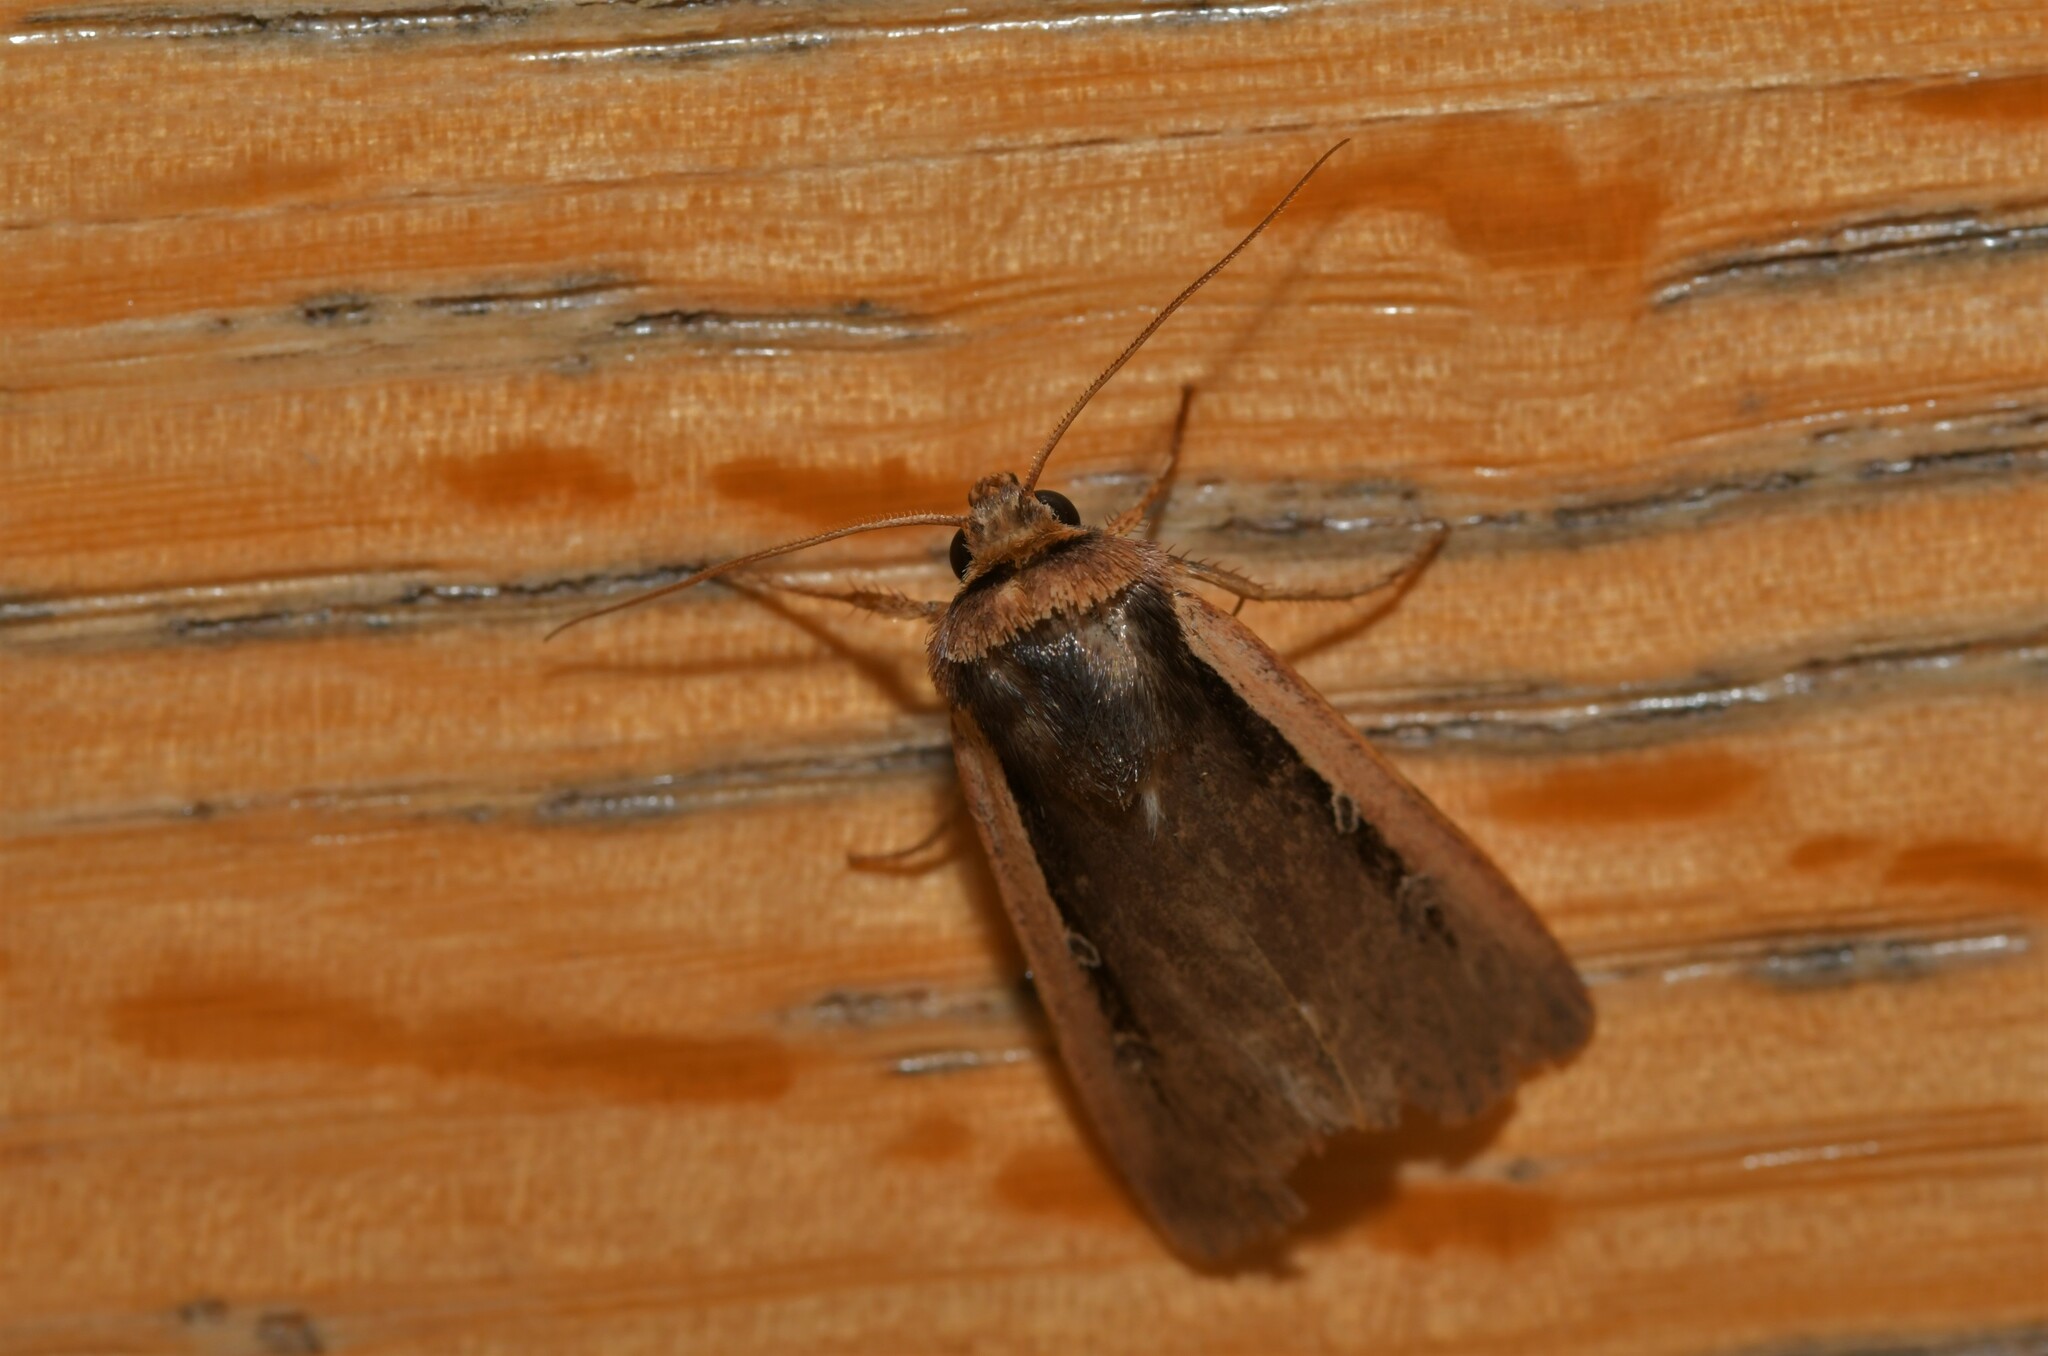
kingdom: Animalia
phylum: Arthropoda
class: Insecta
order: Lepidoptera
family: Noctuidae
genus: Ochropleura
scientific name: Ochropleura leucogaster
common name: Radford's flame shoulder
